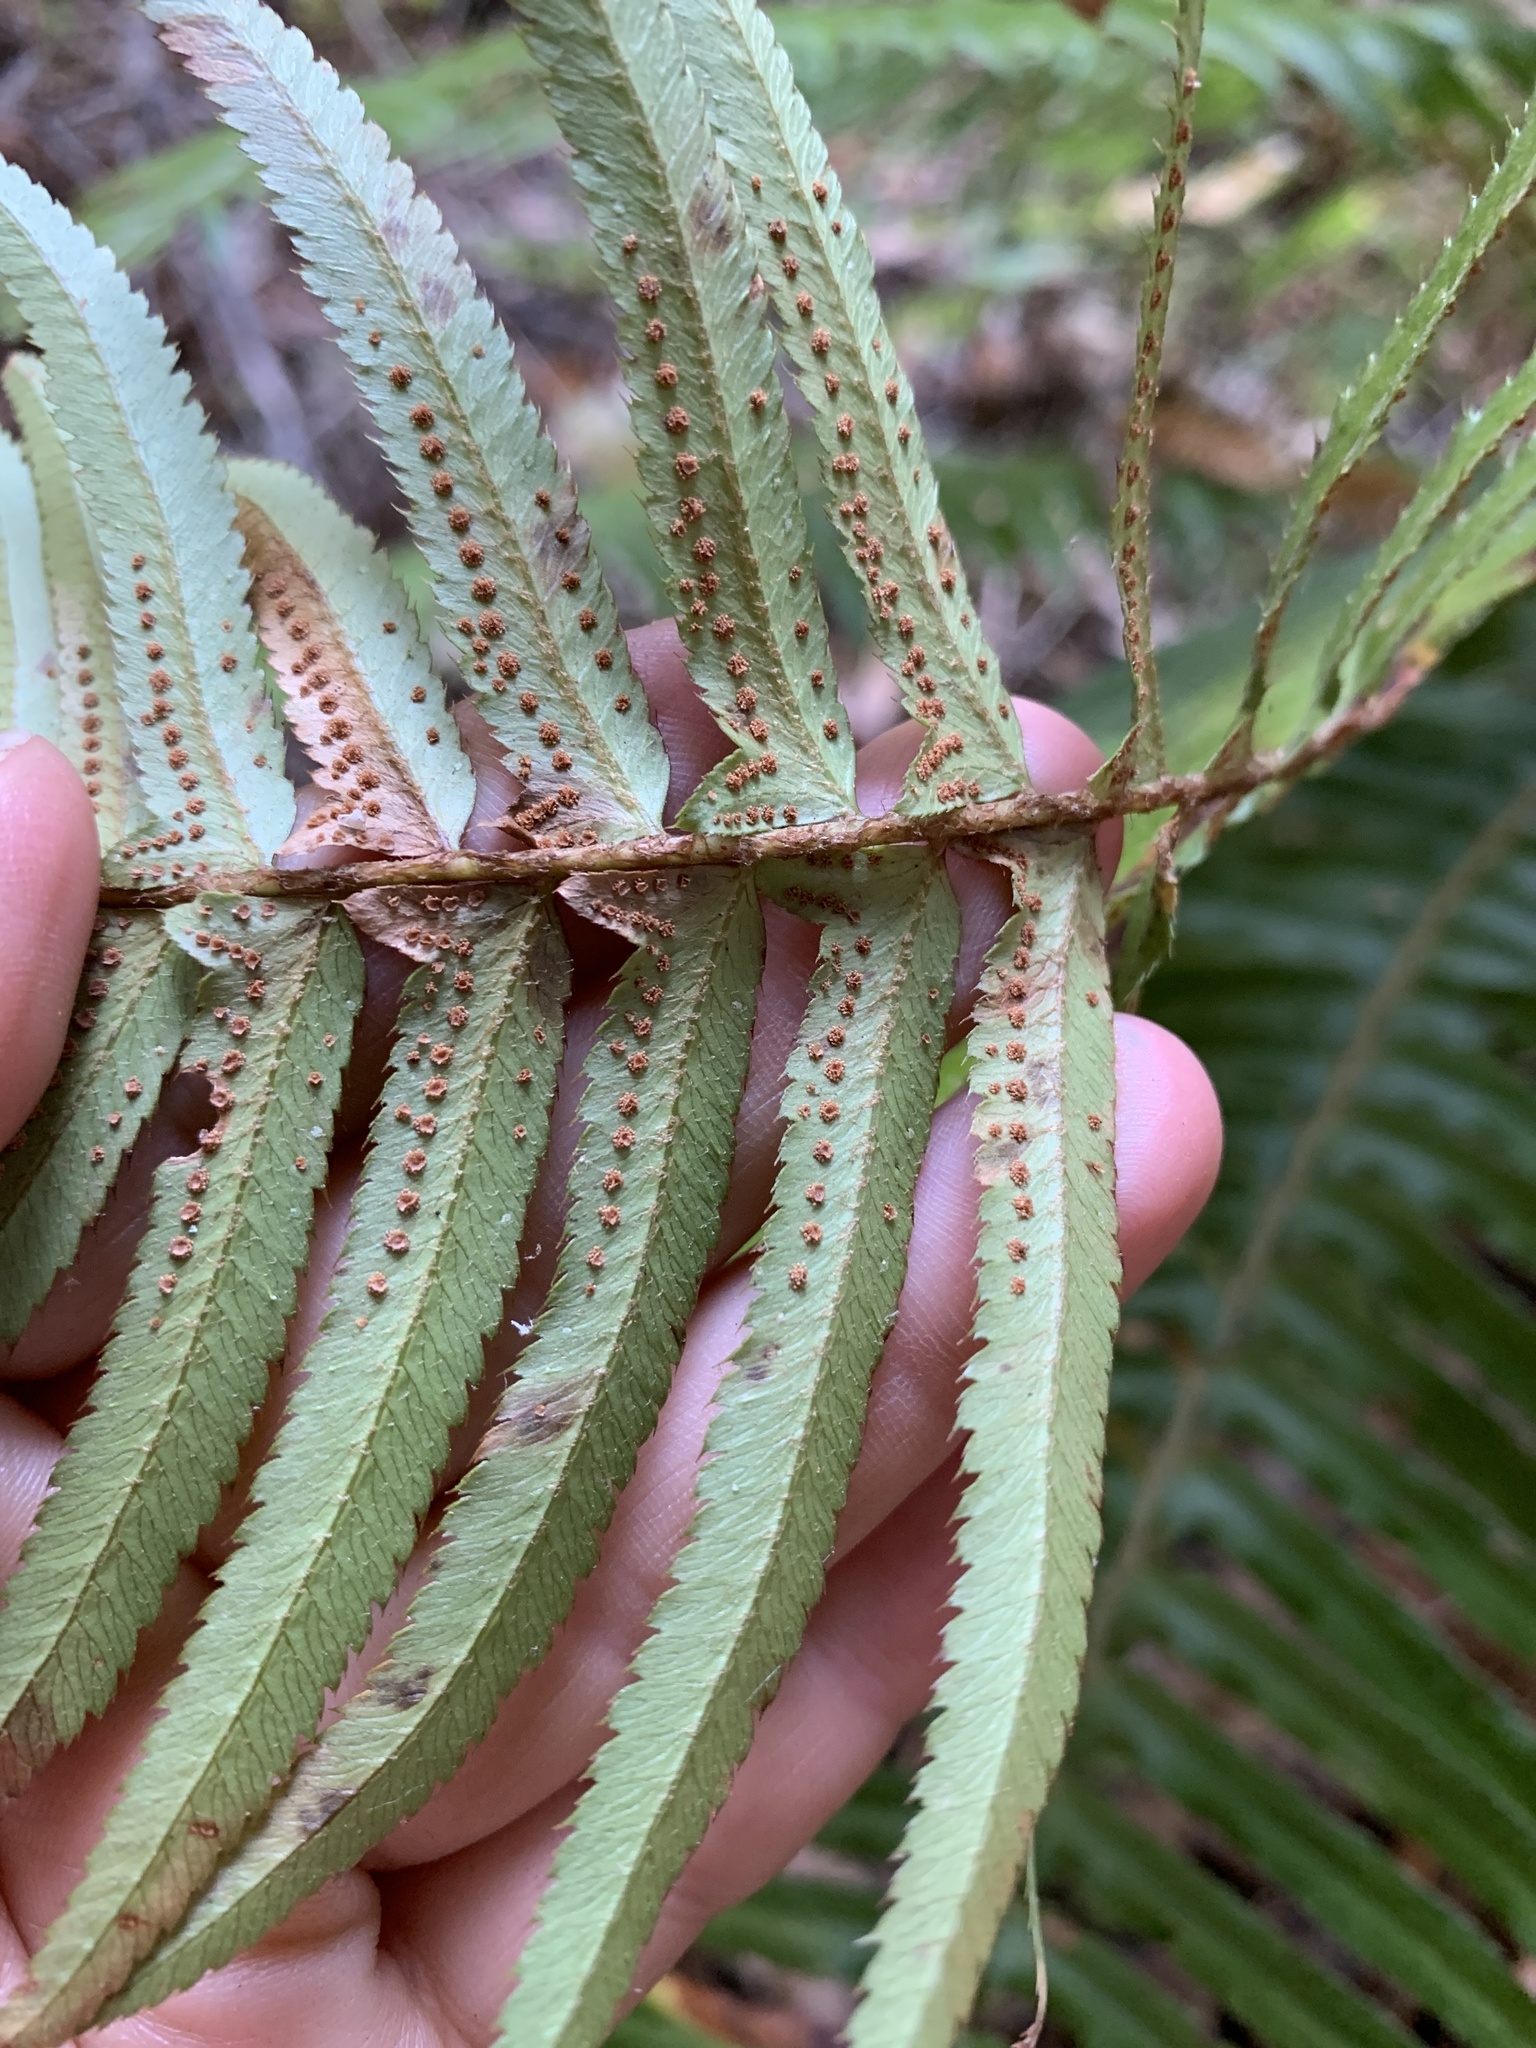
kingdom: Plantae
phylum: Tracheophyta
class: Polypodiopsida
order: Polypodiales
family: Dryopteridaceae
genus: Polystichum
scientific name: Polystichum munitum
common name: Western sword-fern
